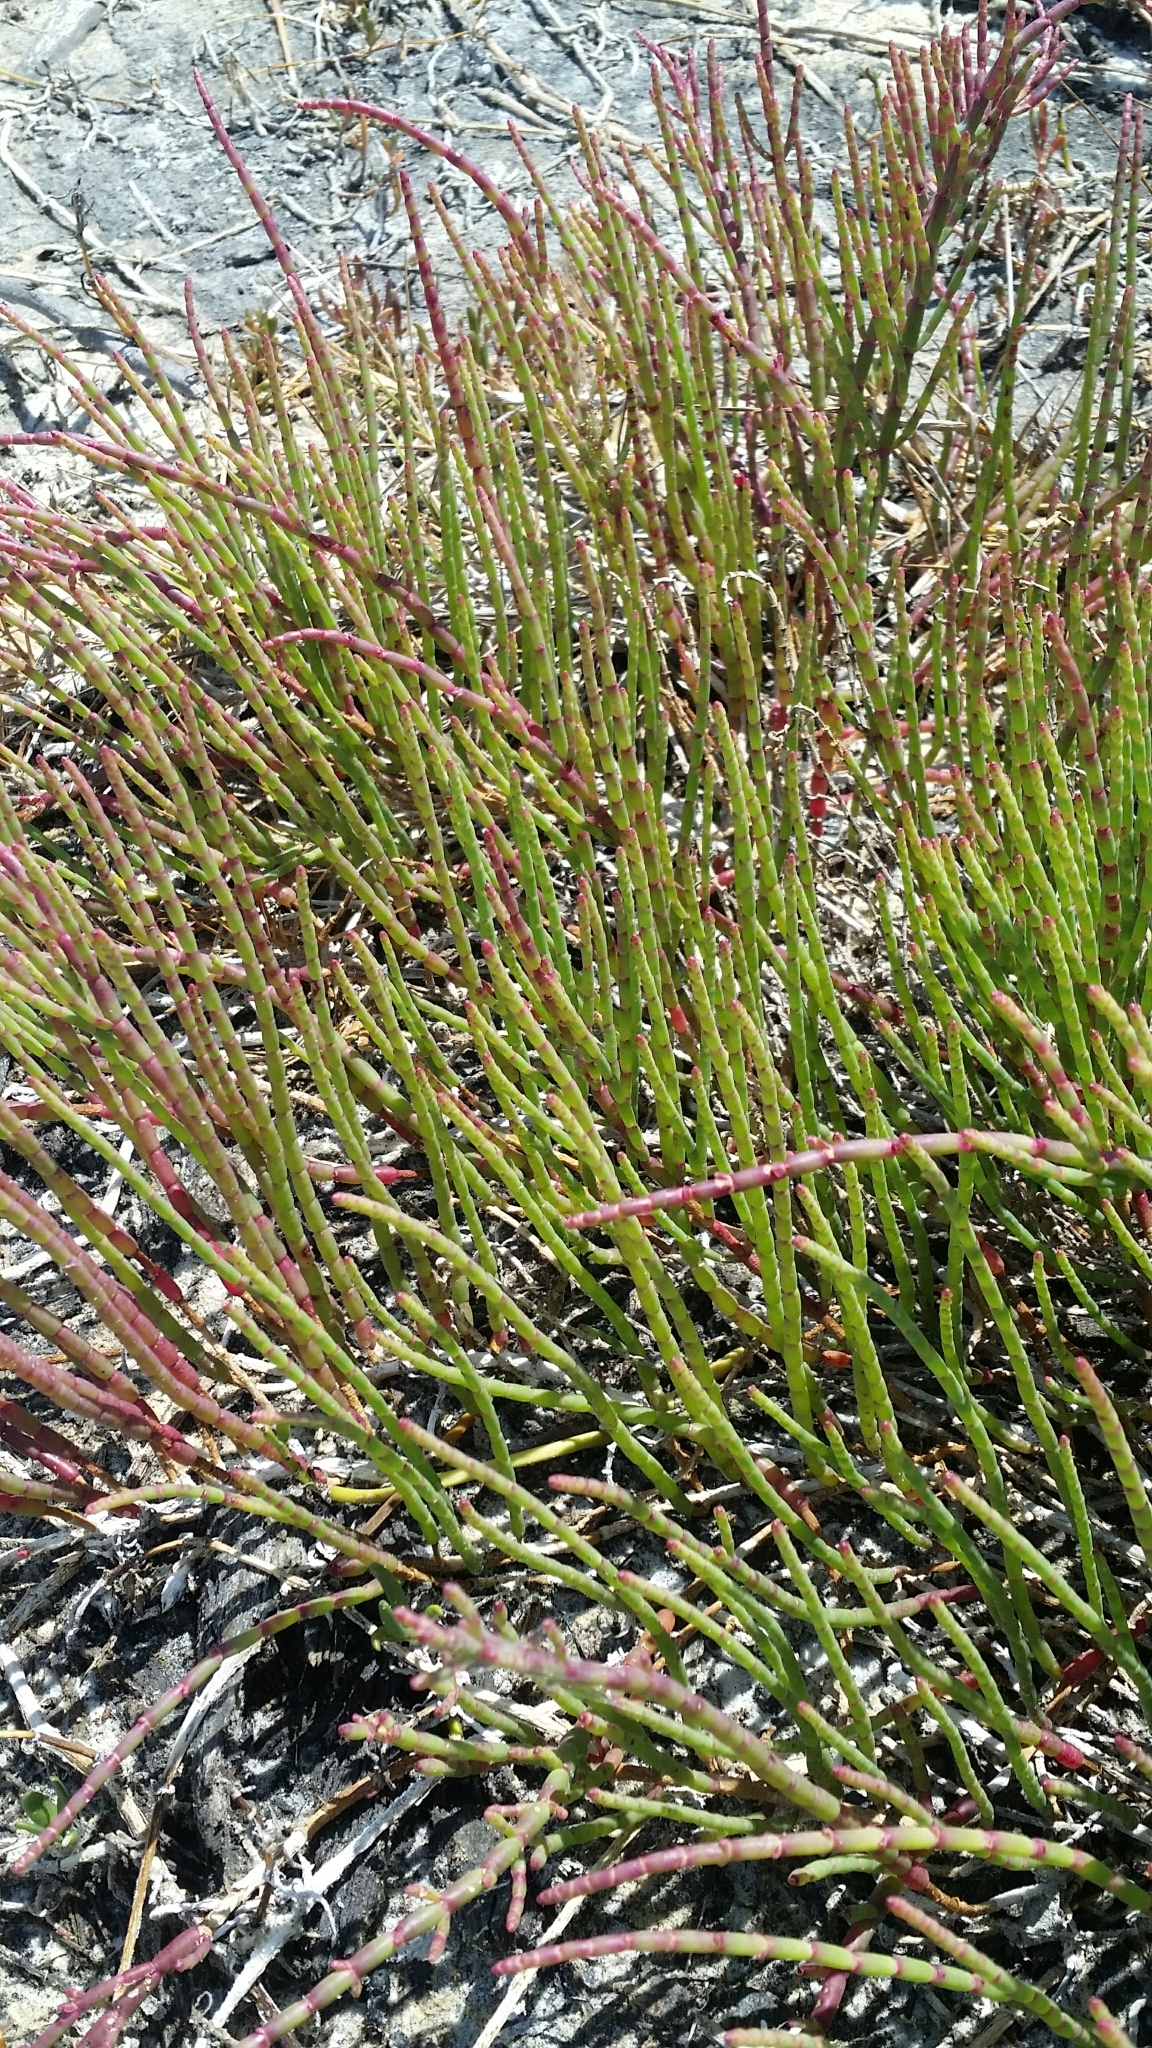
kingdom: Plantae
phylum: Tracheophyta
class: Magnoliopsida
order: Caryophyllales
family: Amaranthaceae
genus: Salicornia
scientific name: Salicornia ambigua
